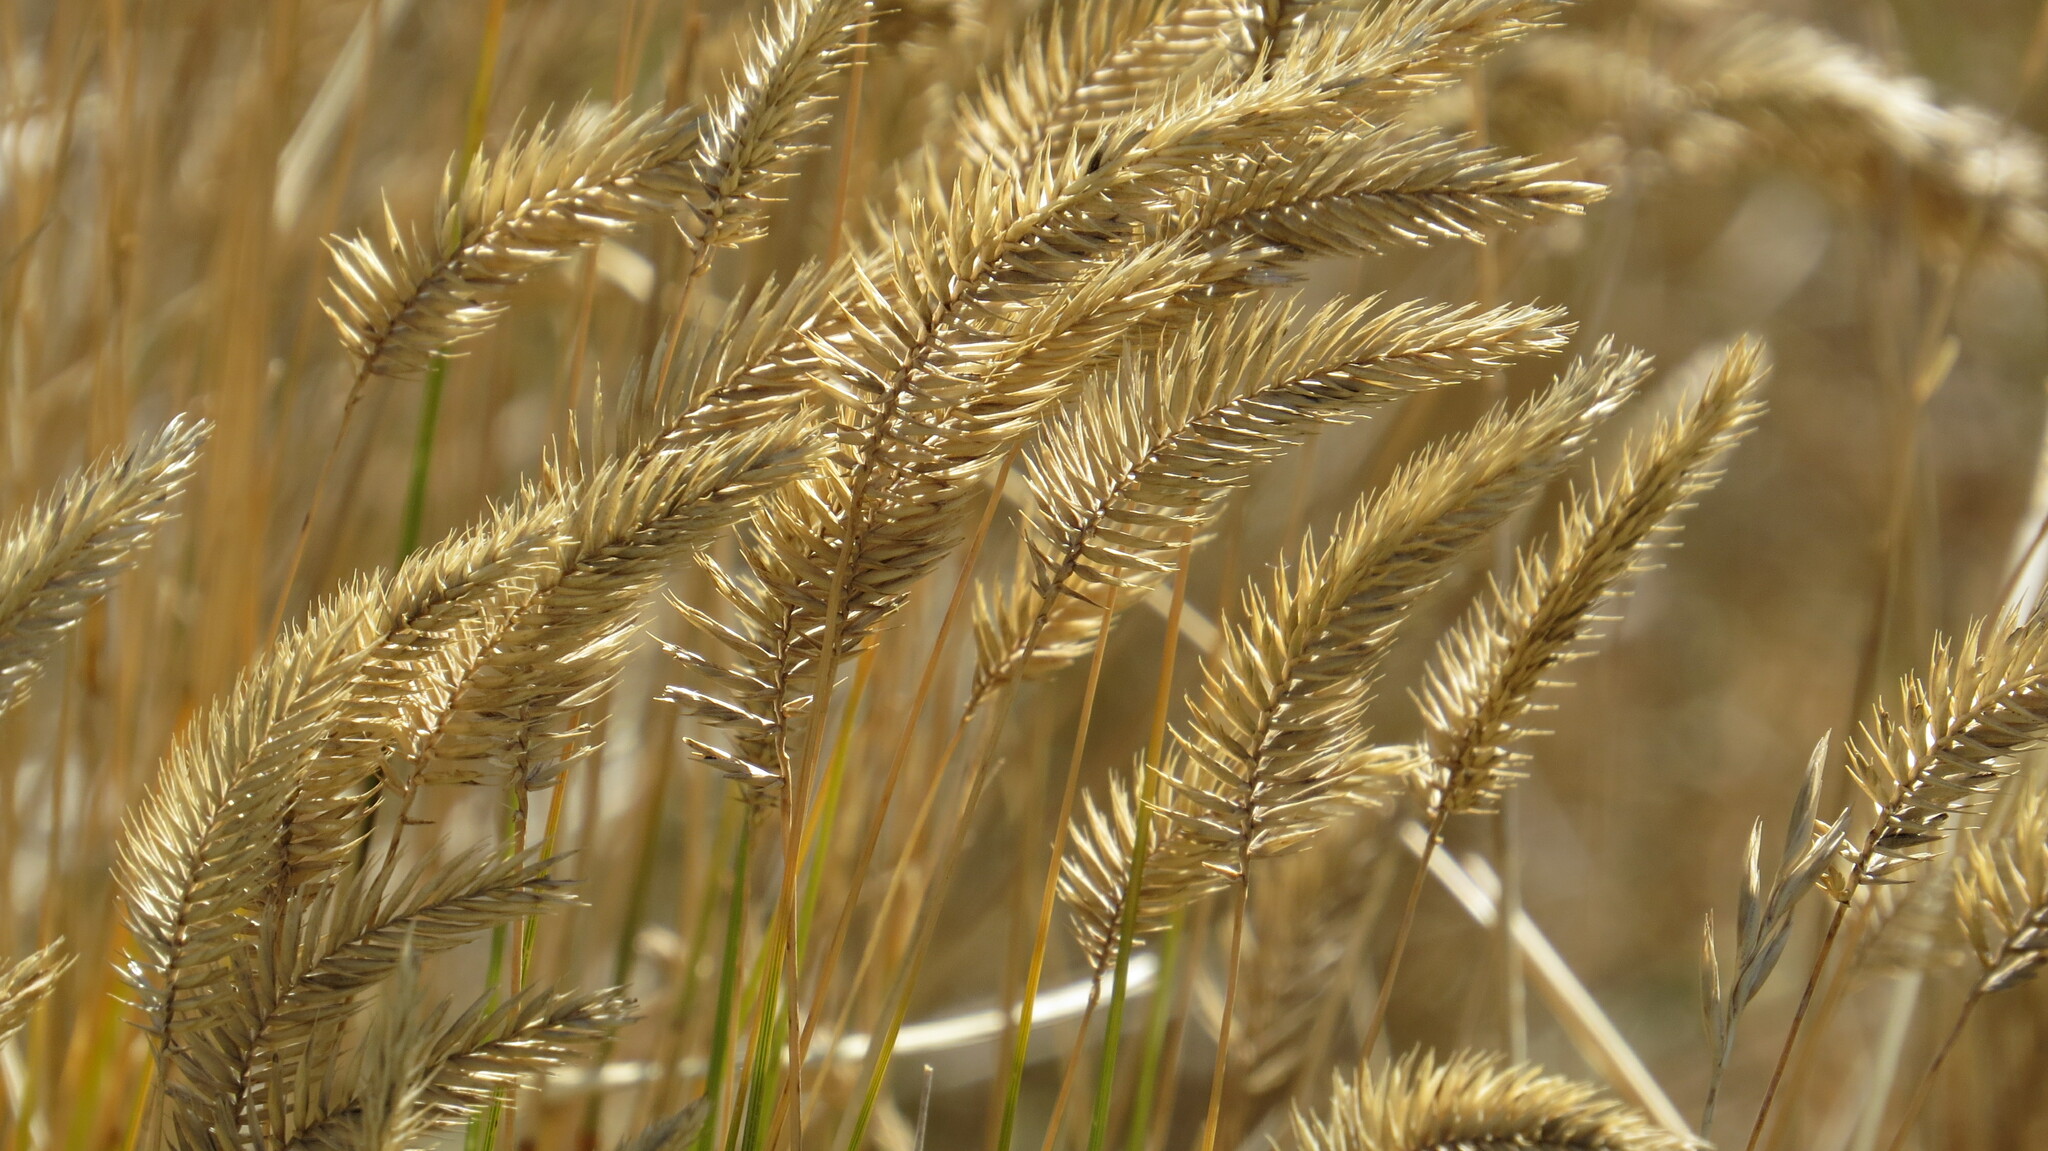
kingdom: Plantae
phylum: Tracheophyta
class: Liliopsida
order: Poales
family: Poaceae
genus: Agropyron
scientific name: Agropyron cristatum
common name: Crested wheatgrass
